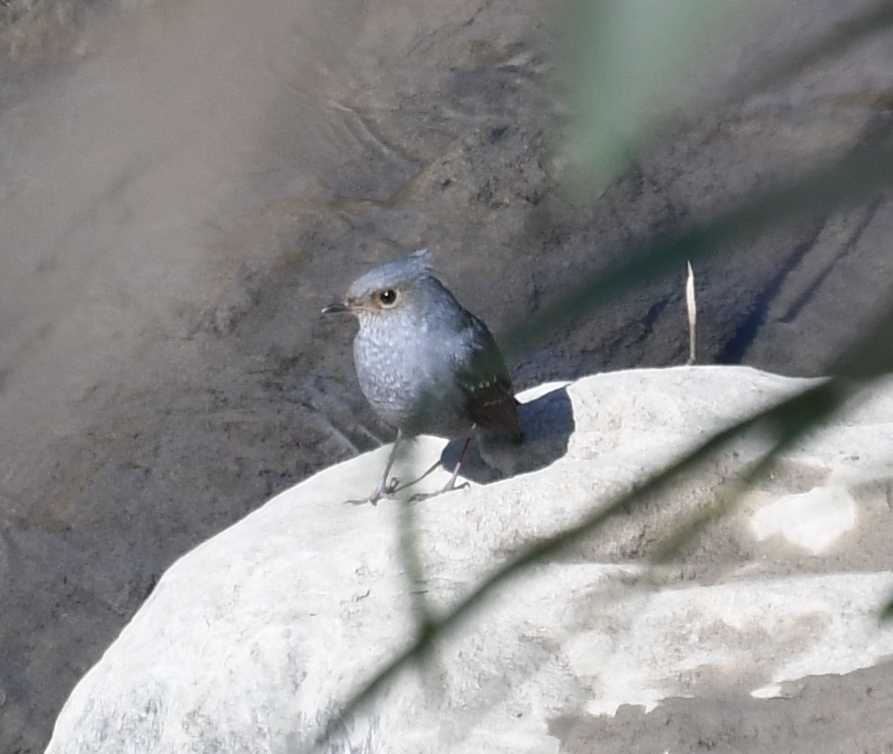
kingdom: Animalia
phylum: Chordata
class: Aves
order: Passeriformes
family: Muscicapidae
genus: Phoenicurus
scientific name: Phoenicurus fuliginosus
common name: Plumbeous water redstart
